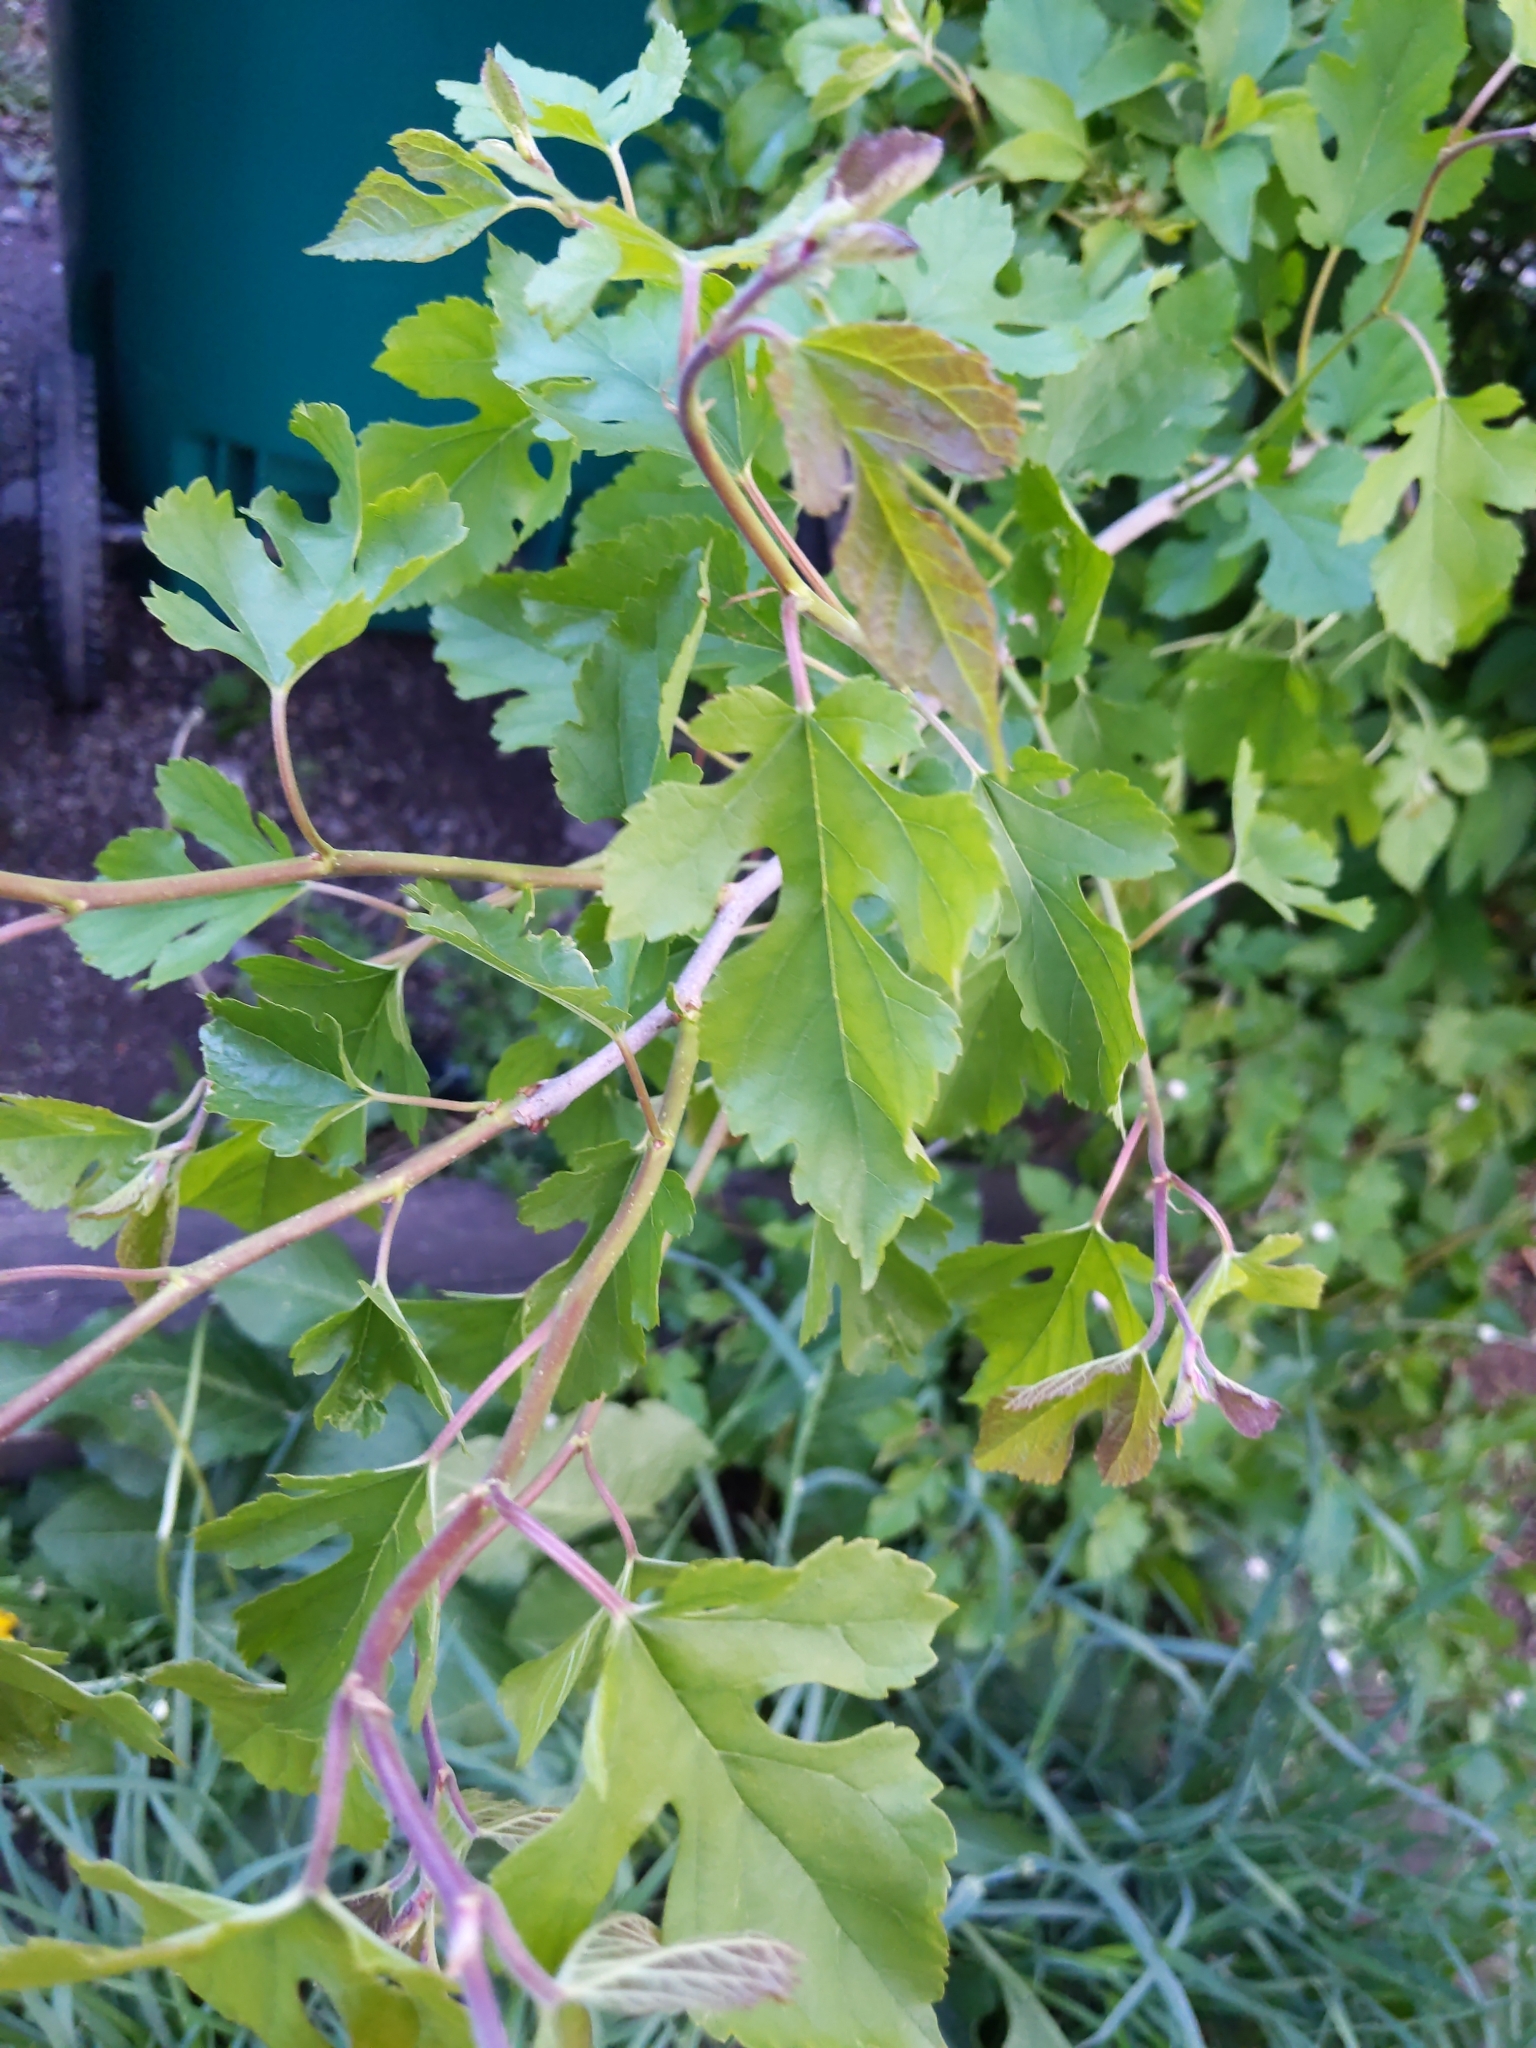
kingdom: Plantae
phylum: Tracheophyta
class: Magnoliopsida
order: Rosales
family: Moraceae
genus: Morus
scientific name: Morus alba
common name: White mulberry
